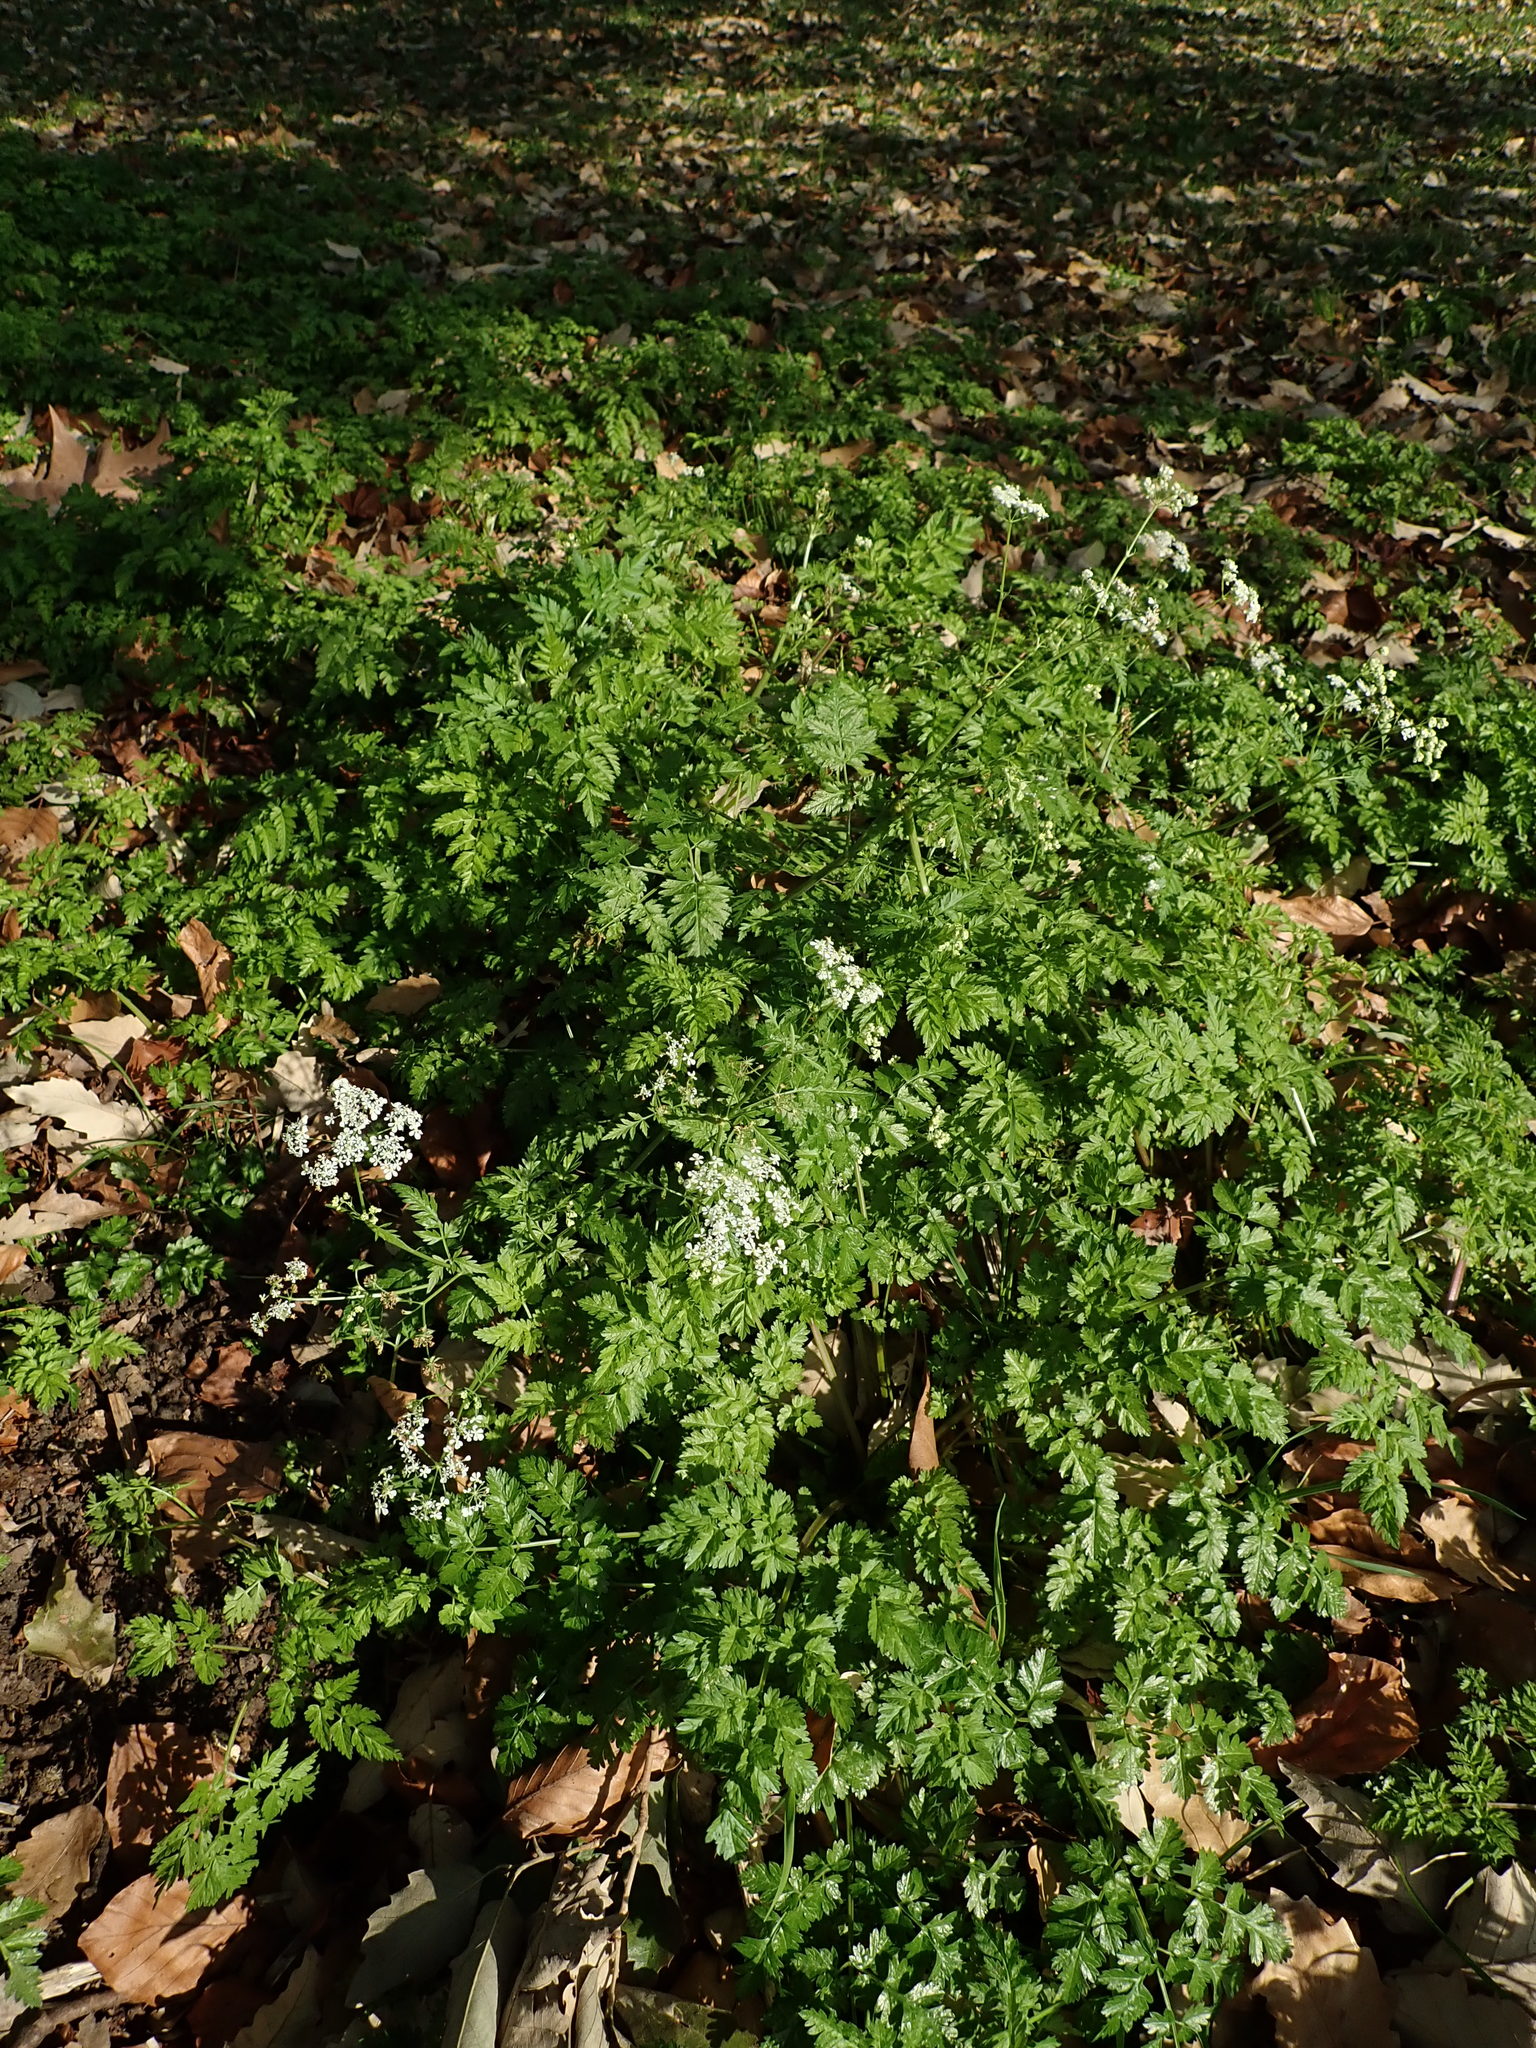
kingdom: Plantae
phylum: Tracheophyta
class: Magnoliopsida
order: Apiales
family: Apiaceae
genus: Anthriscus
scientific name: Anthriscus sylvestris
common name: Cow parsley
